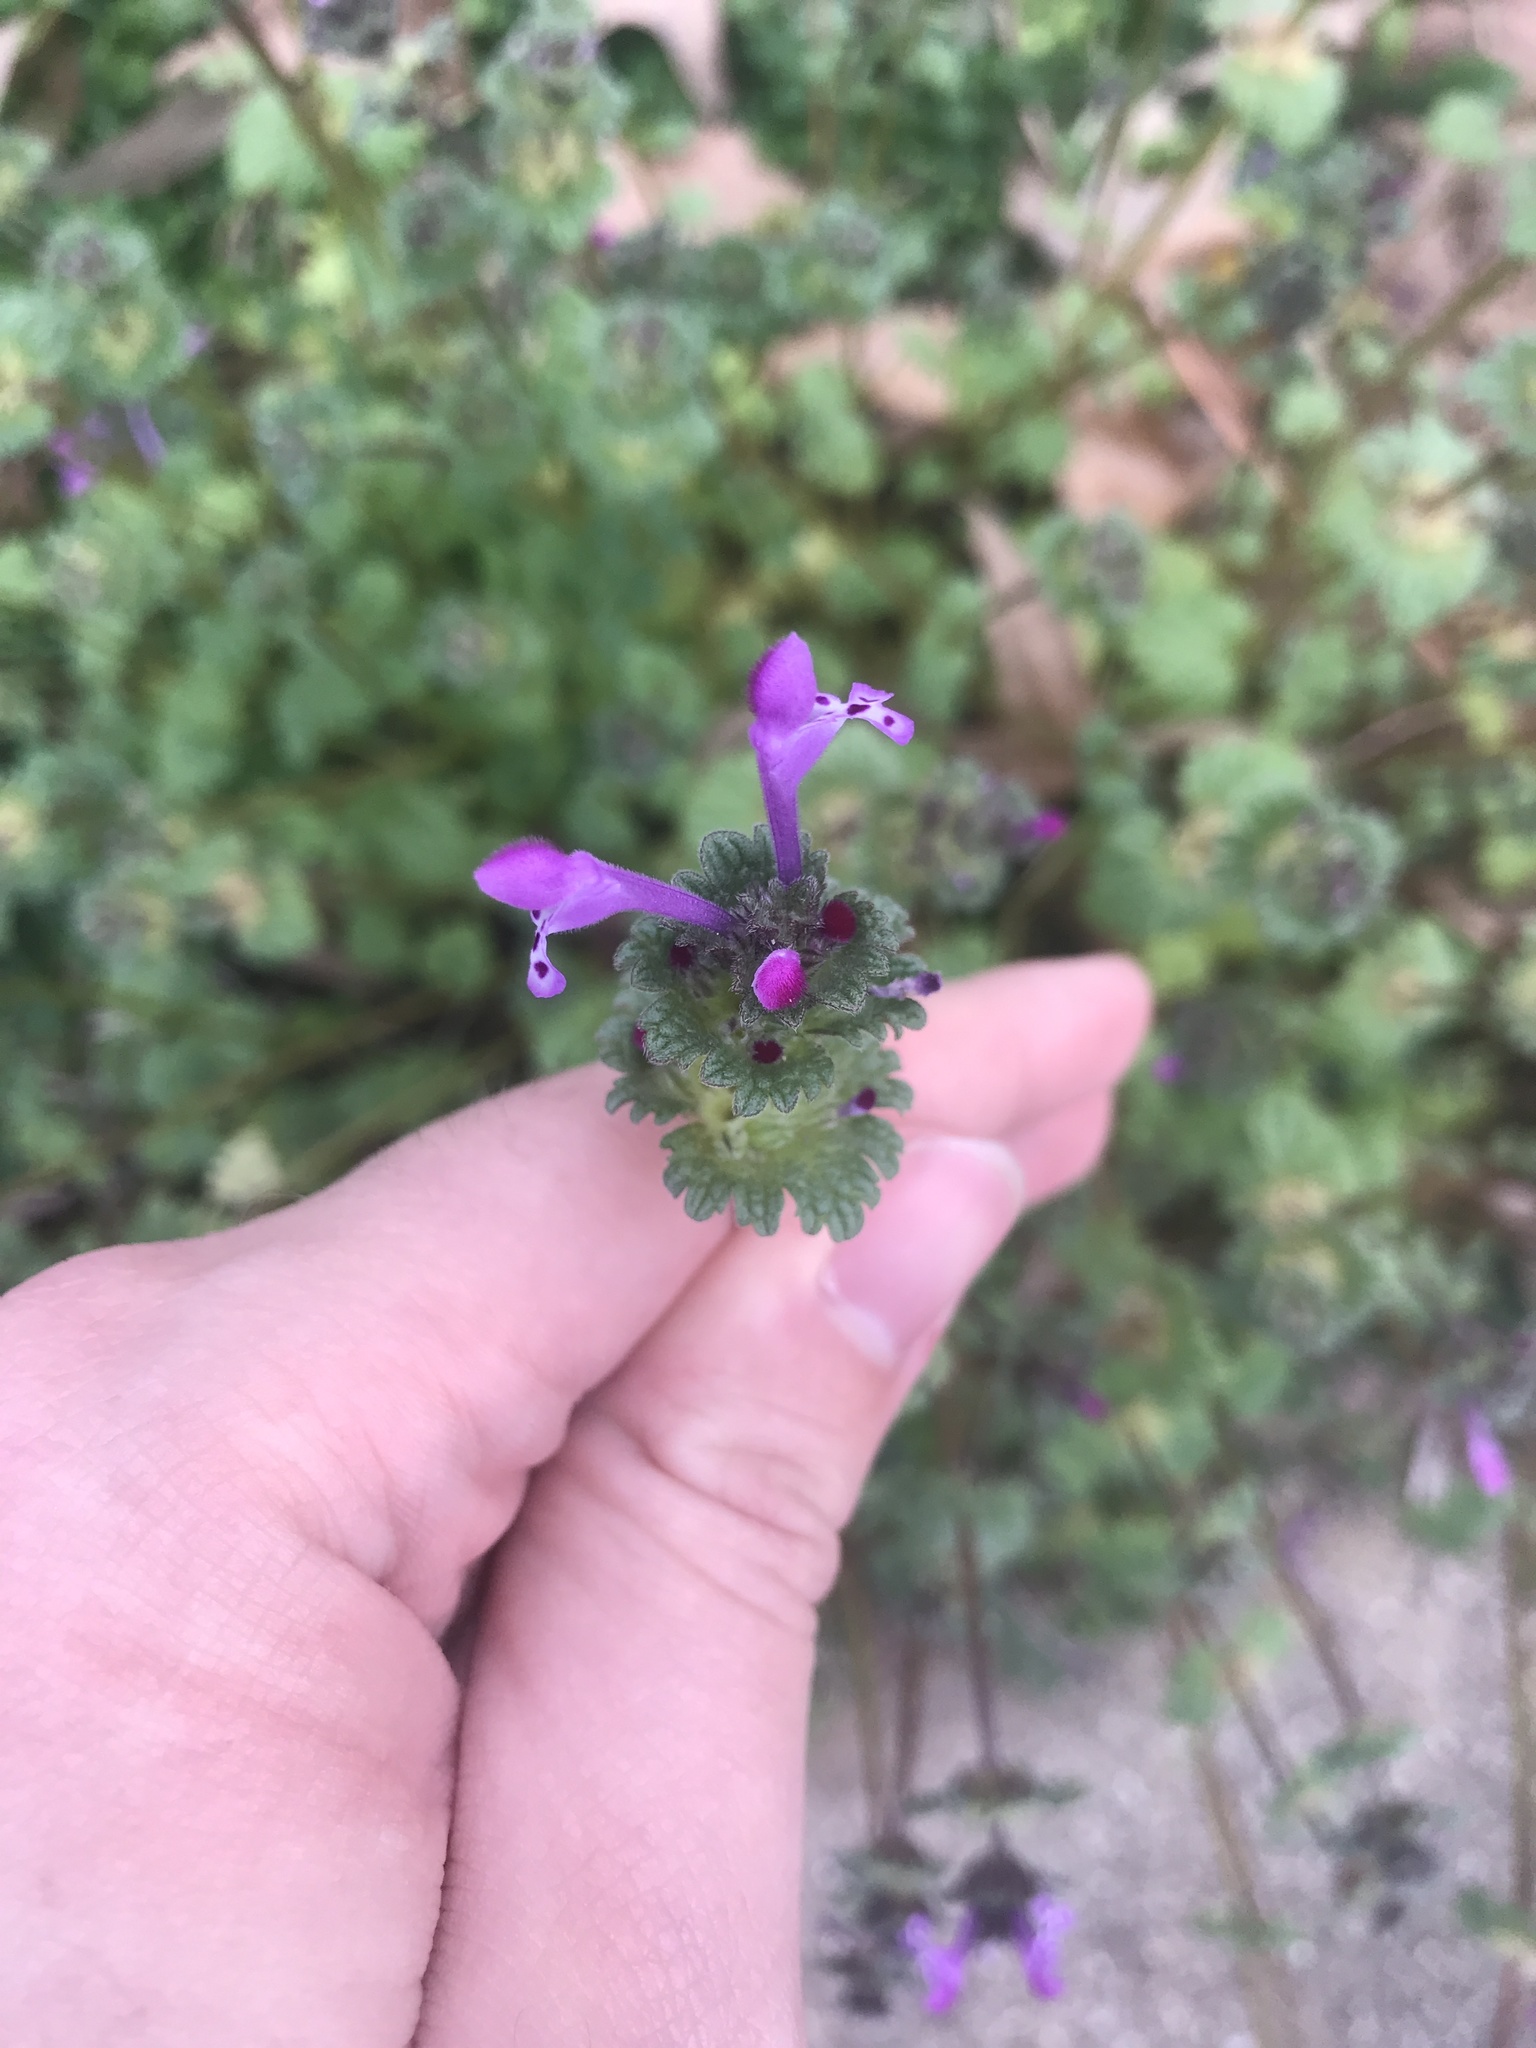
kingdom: Plantae
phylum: Tracheophyta
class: Magnoliopsida
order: Lamiales
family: Lamiaceae
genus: Lamium
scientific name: Lamium amplexicaule
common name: Henbit dead-nettle
